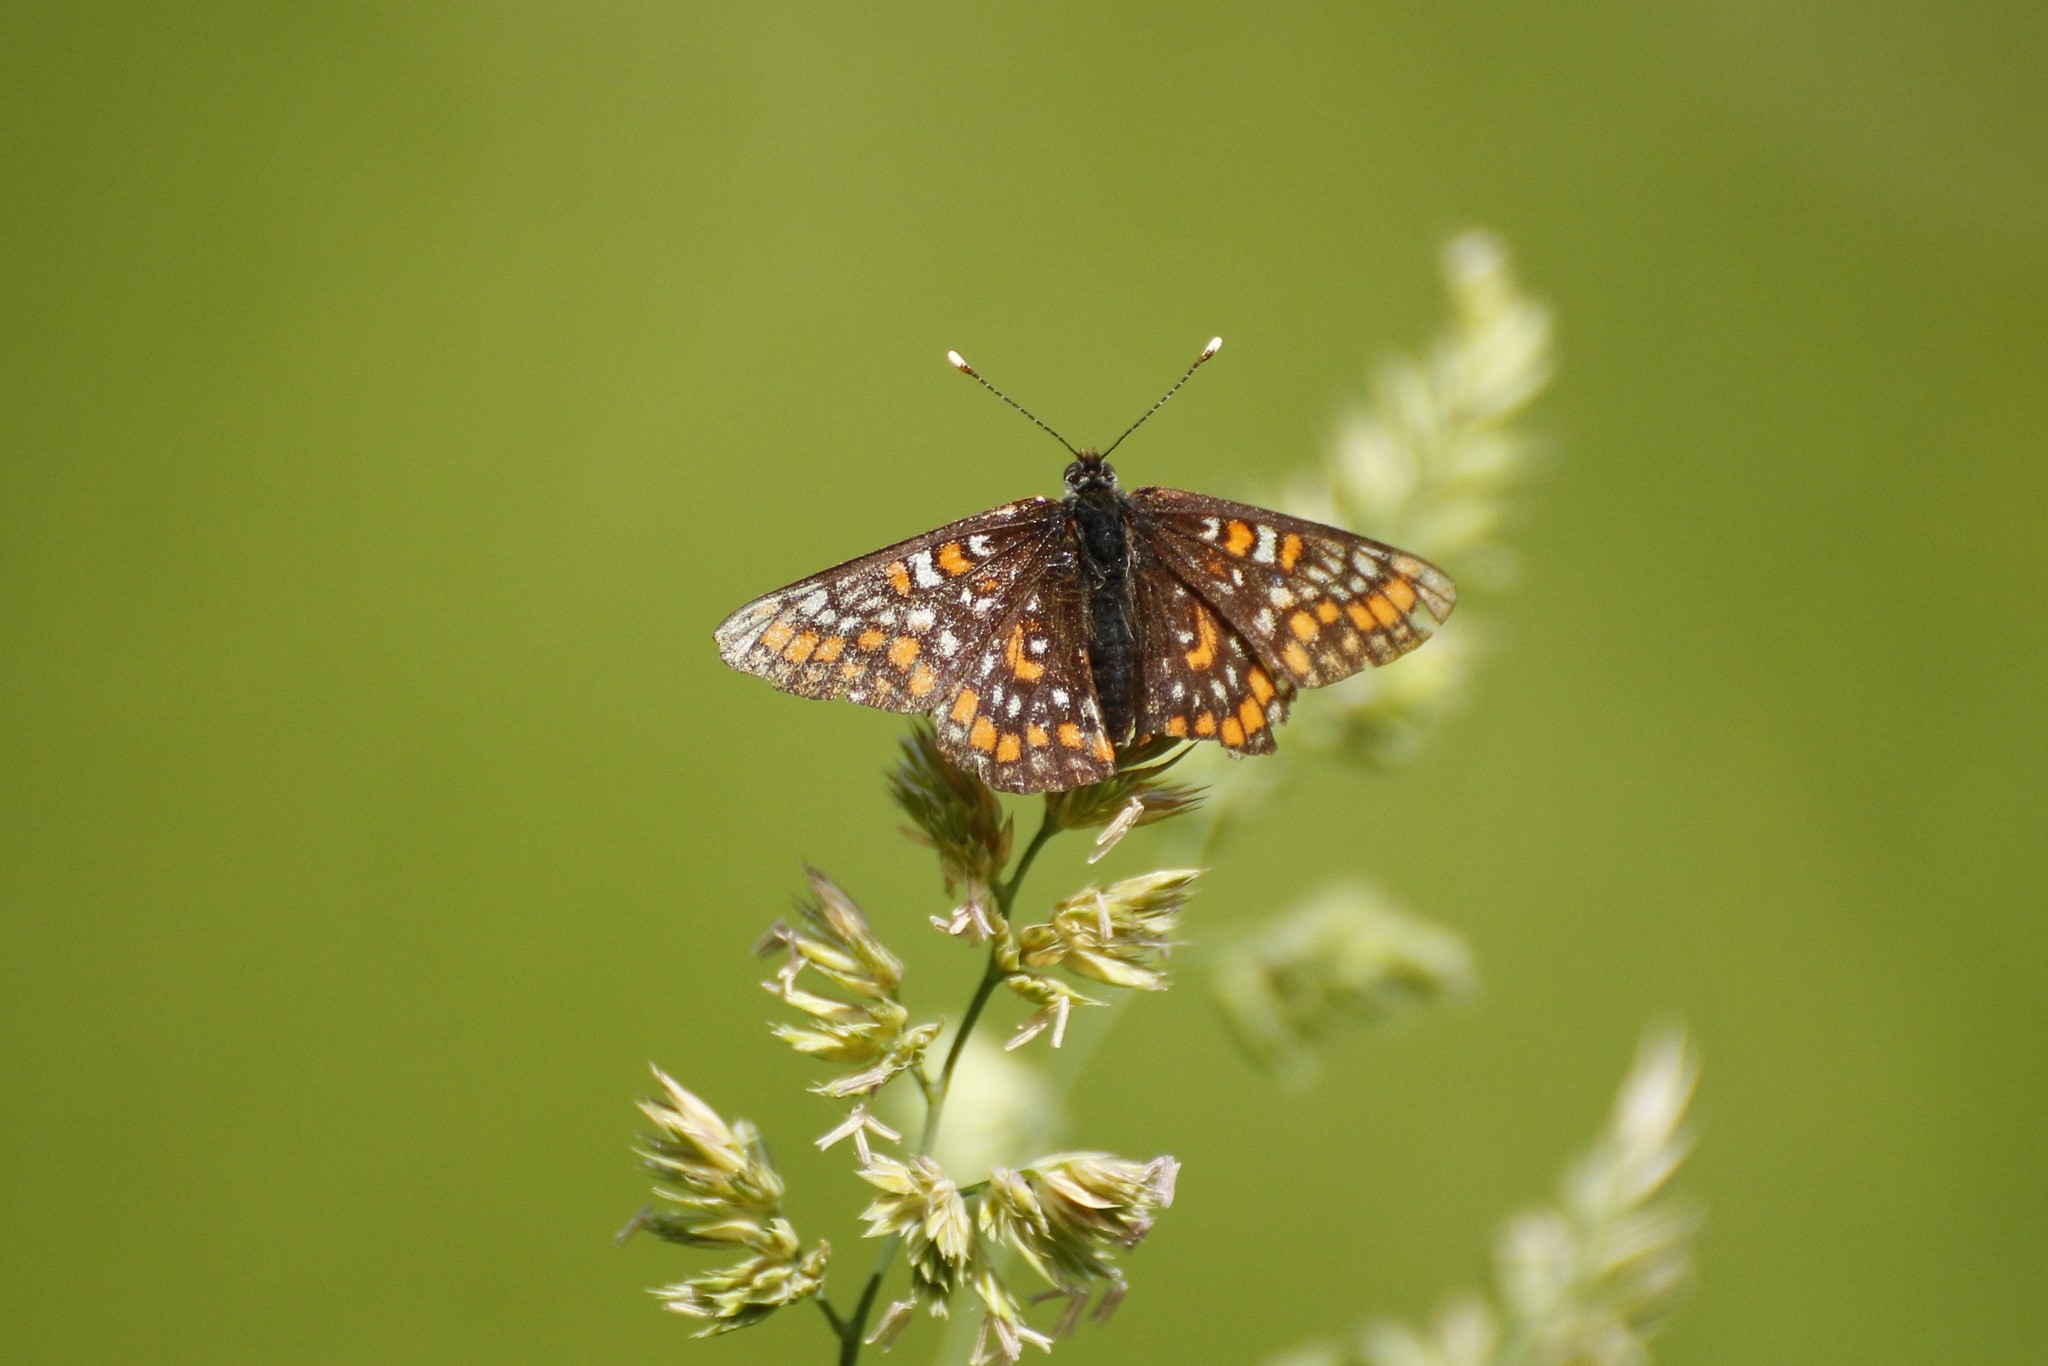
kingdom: Animalia
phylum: Arthropoda
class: Insecta
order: Lepidoptera
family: Nymphalidae
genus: Euphydryas
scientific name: Euphydryas maturna
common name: Scarce fritillary
